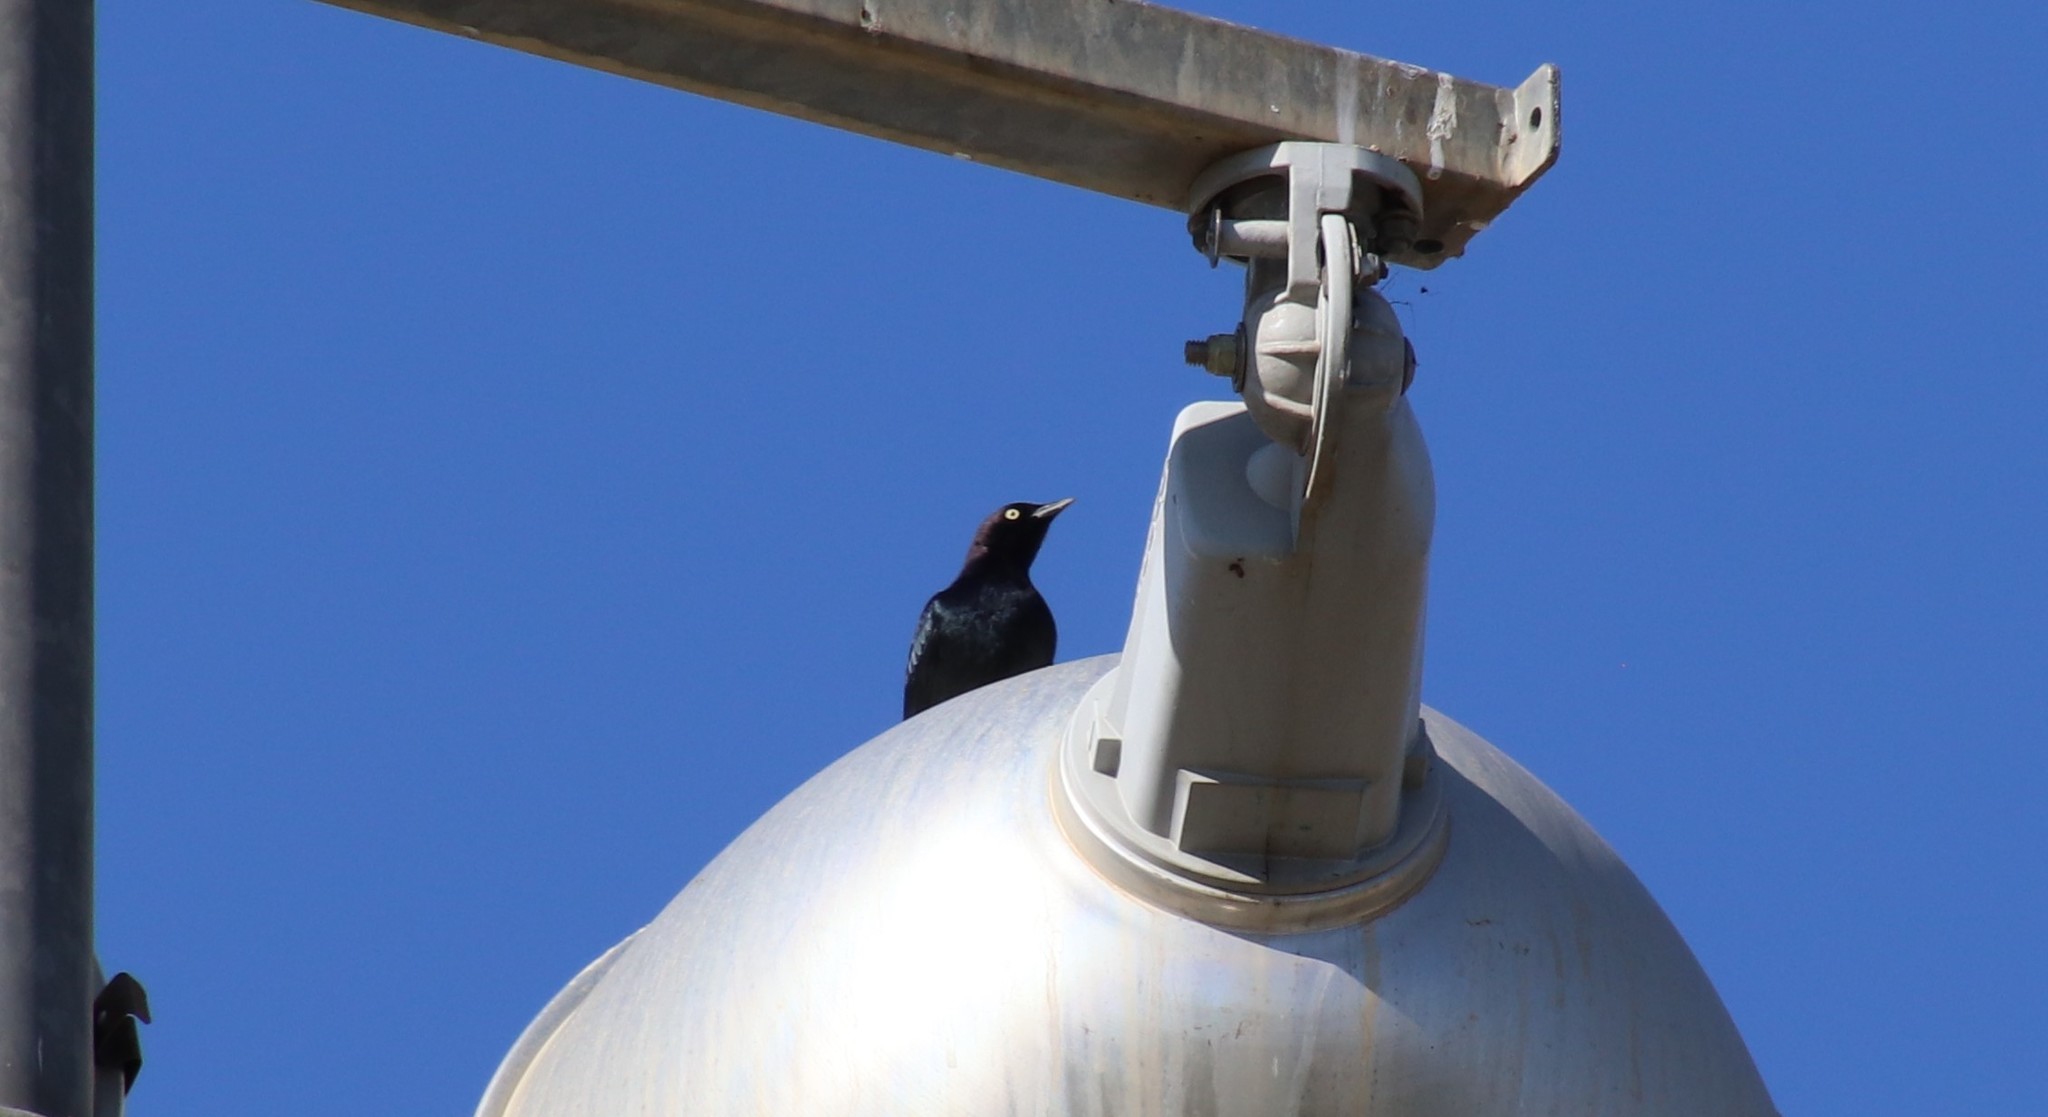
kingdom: Animalia
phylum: Chordata
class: Aves
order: Passeriformes
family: Icteridae
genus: Euphagus
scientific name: Euphagus cyanocephalus
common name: Brewer's blackbird
